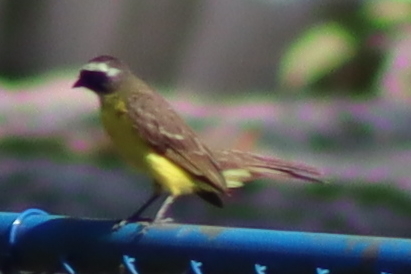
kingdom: Animalia
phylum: Chordata
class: Aves
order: Passeriformes
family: Tyrannidae
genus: Myiozetetes
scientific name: Myiozetetes similis
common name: Social flycatcher
